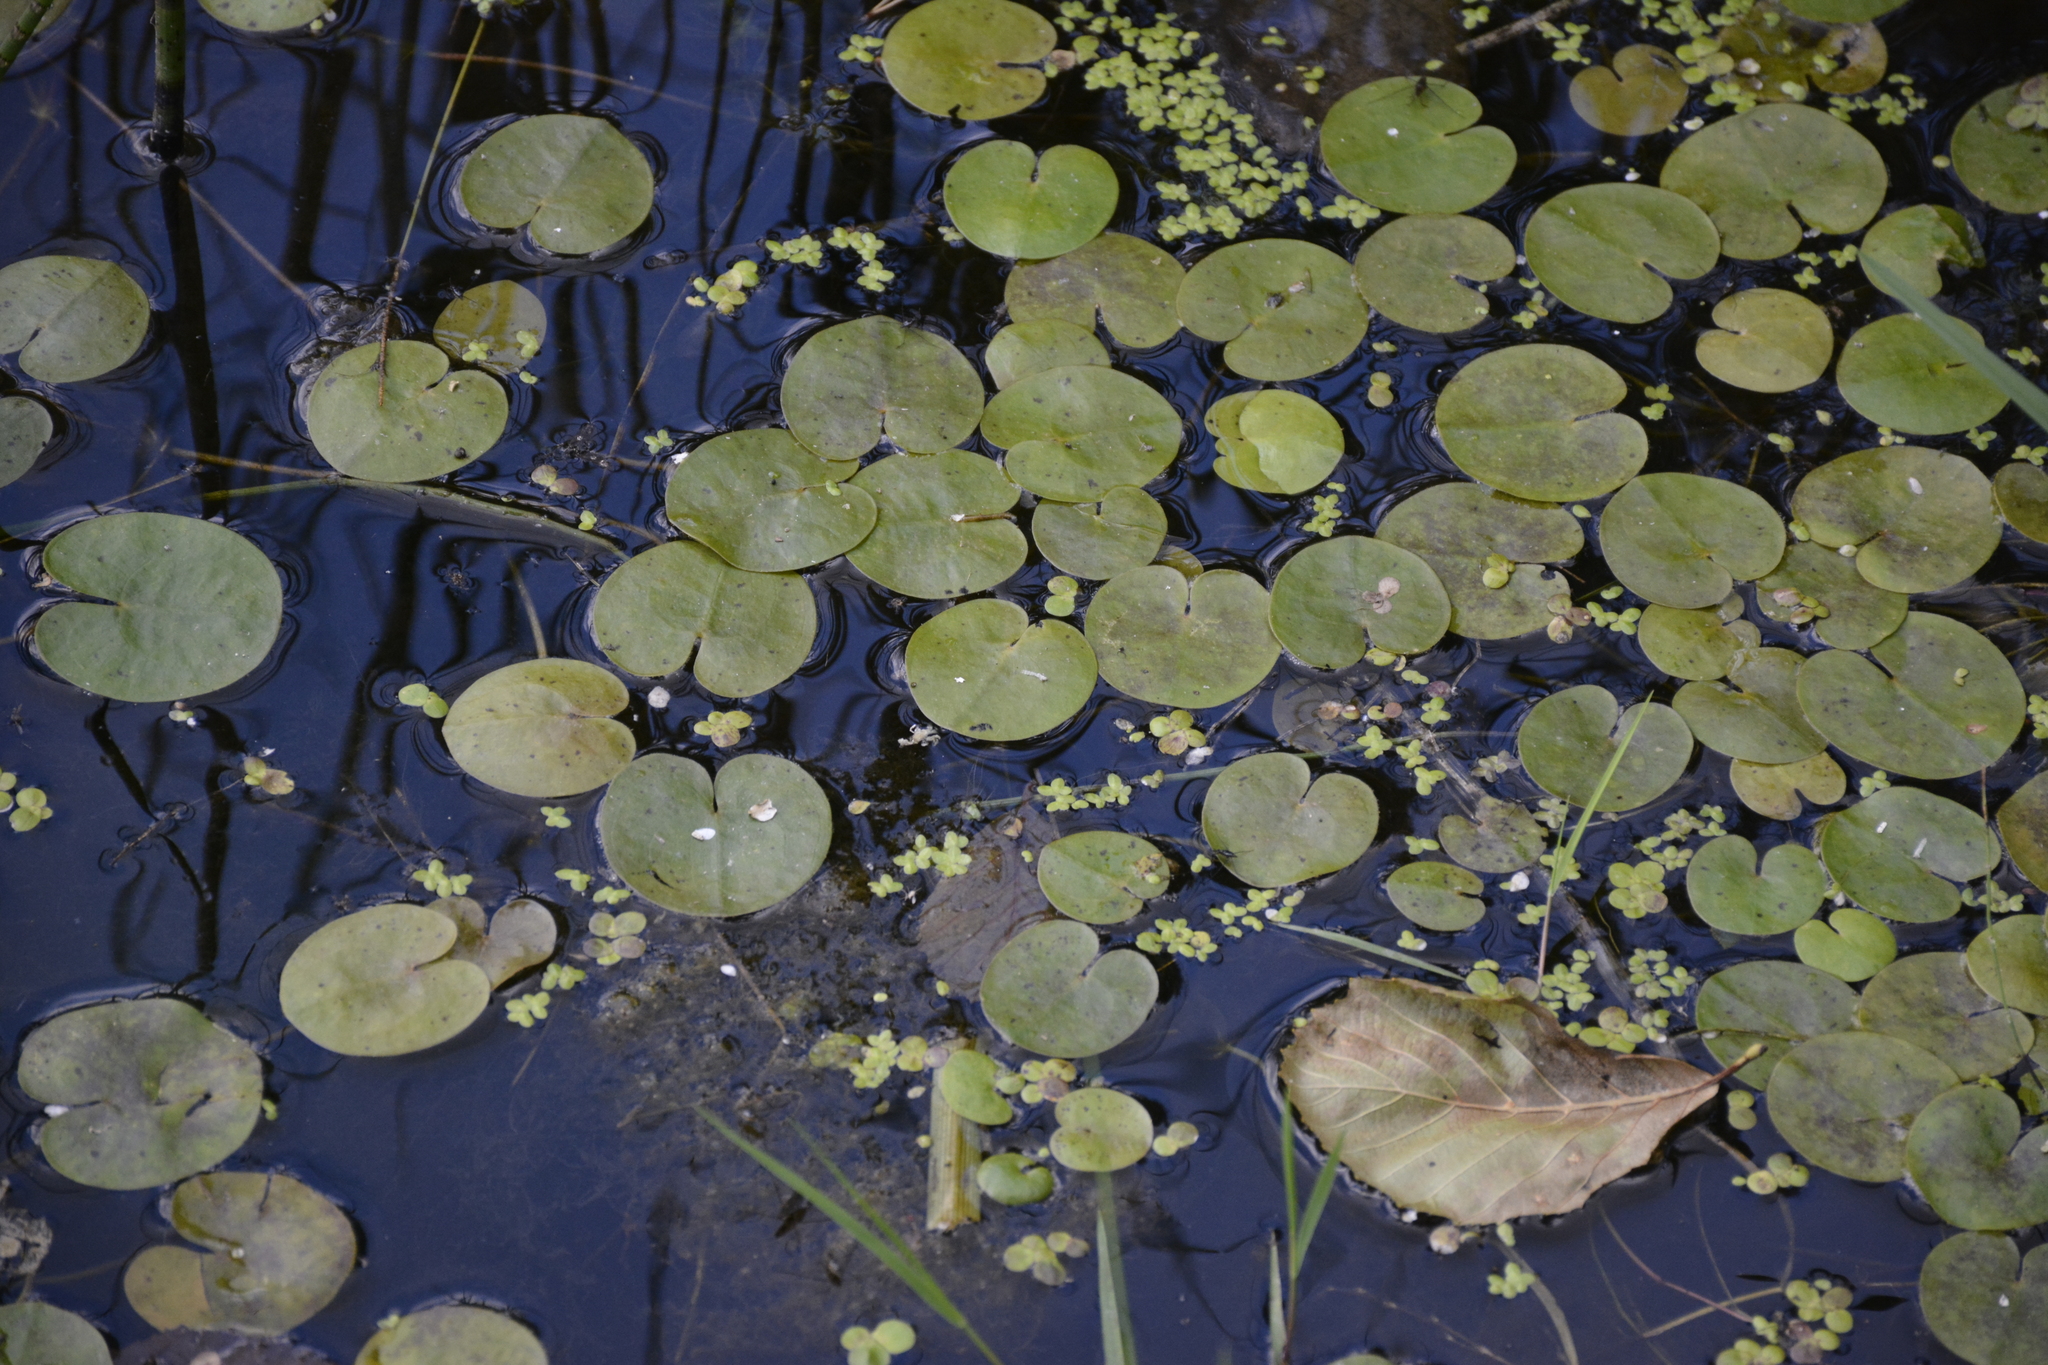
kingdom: Plantae
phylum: Tracheophyta
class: Liliopsida
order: Alismatales
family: Hydrocharitaceae
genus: Hydrocharis
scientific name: Hydrocharis morsus-ranae
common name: Frogbit
